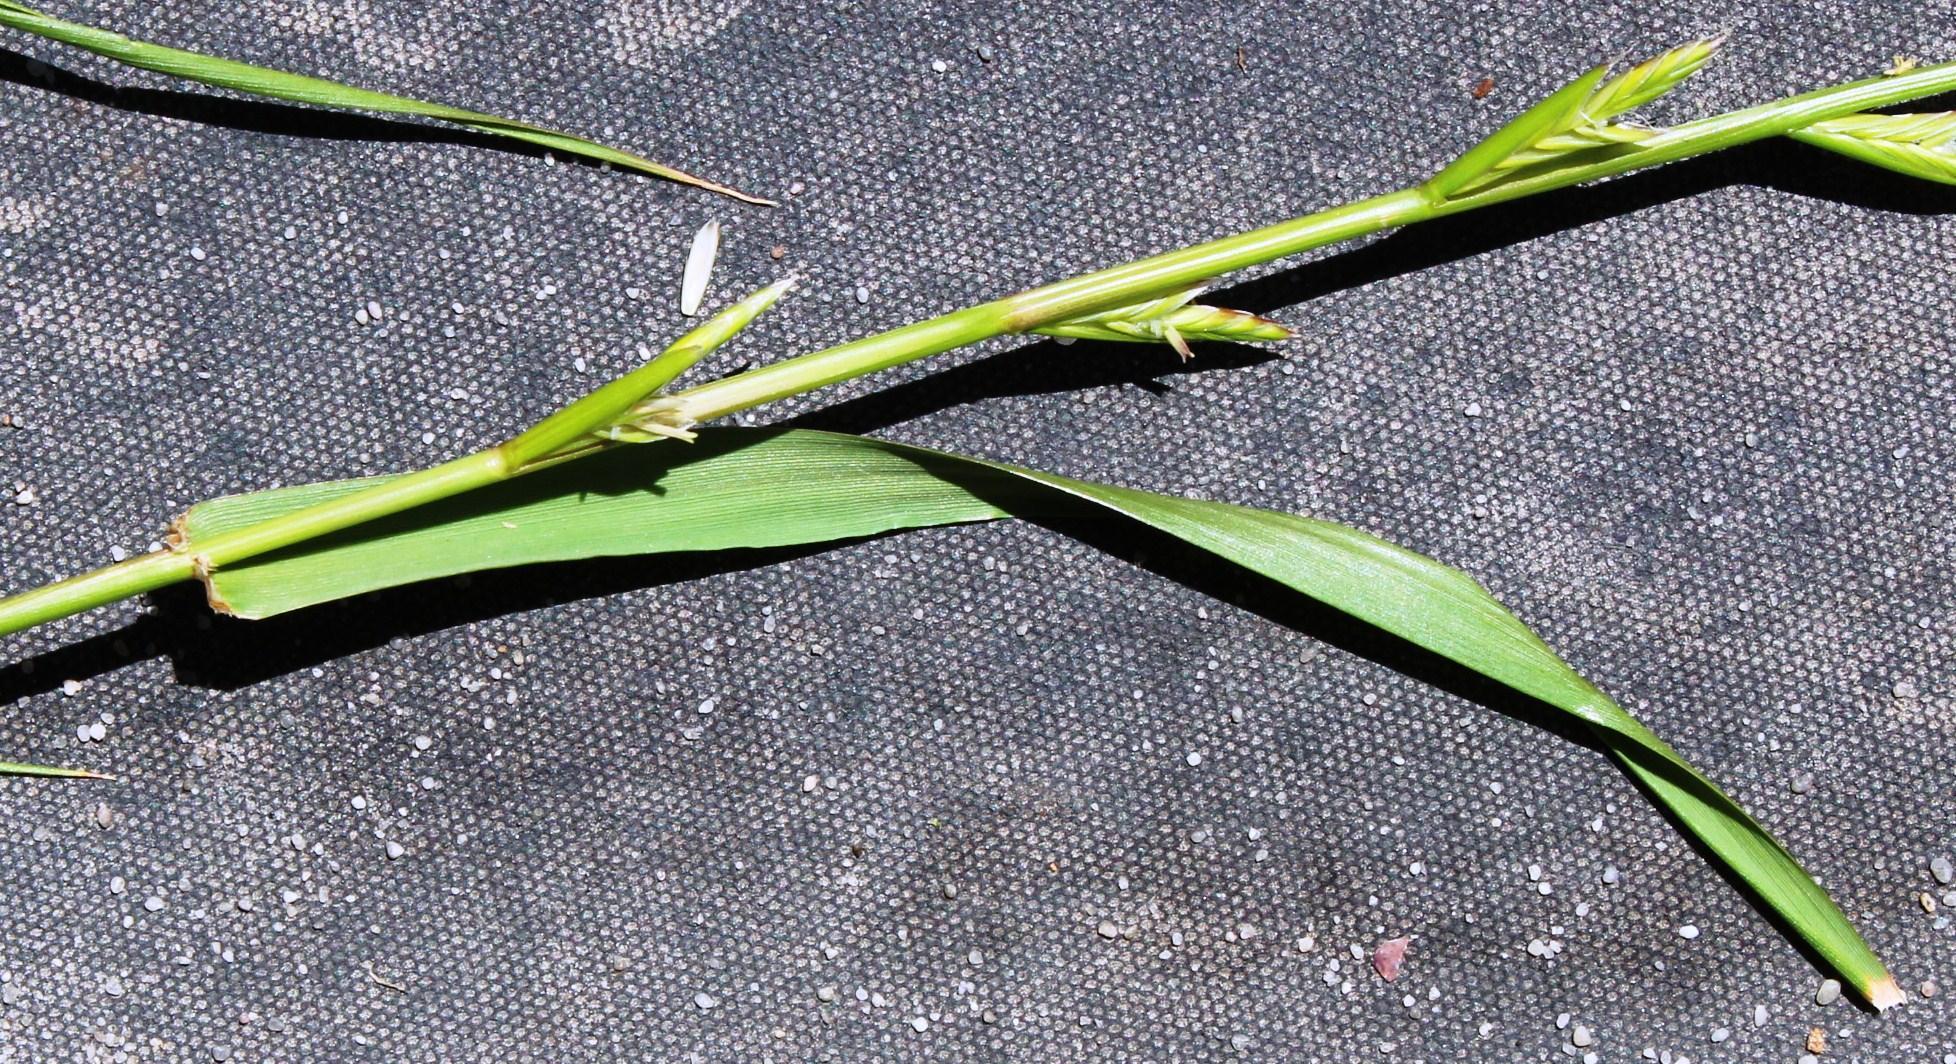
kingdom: Plantae
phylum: Tracheophyta
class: Liliopsida
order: Poales
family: Poaceae
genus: Lolium
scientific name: Lolium perenne
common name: Perennial ryegrass
